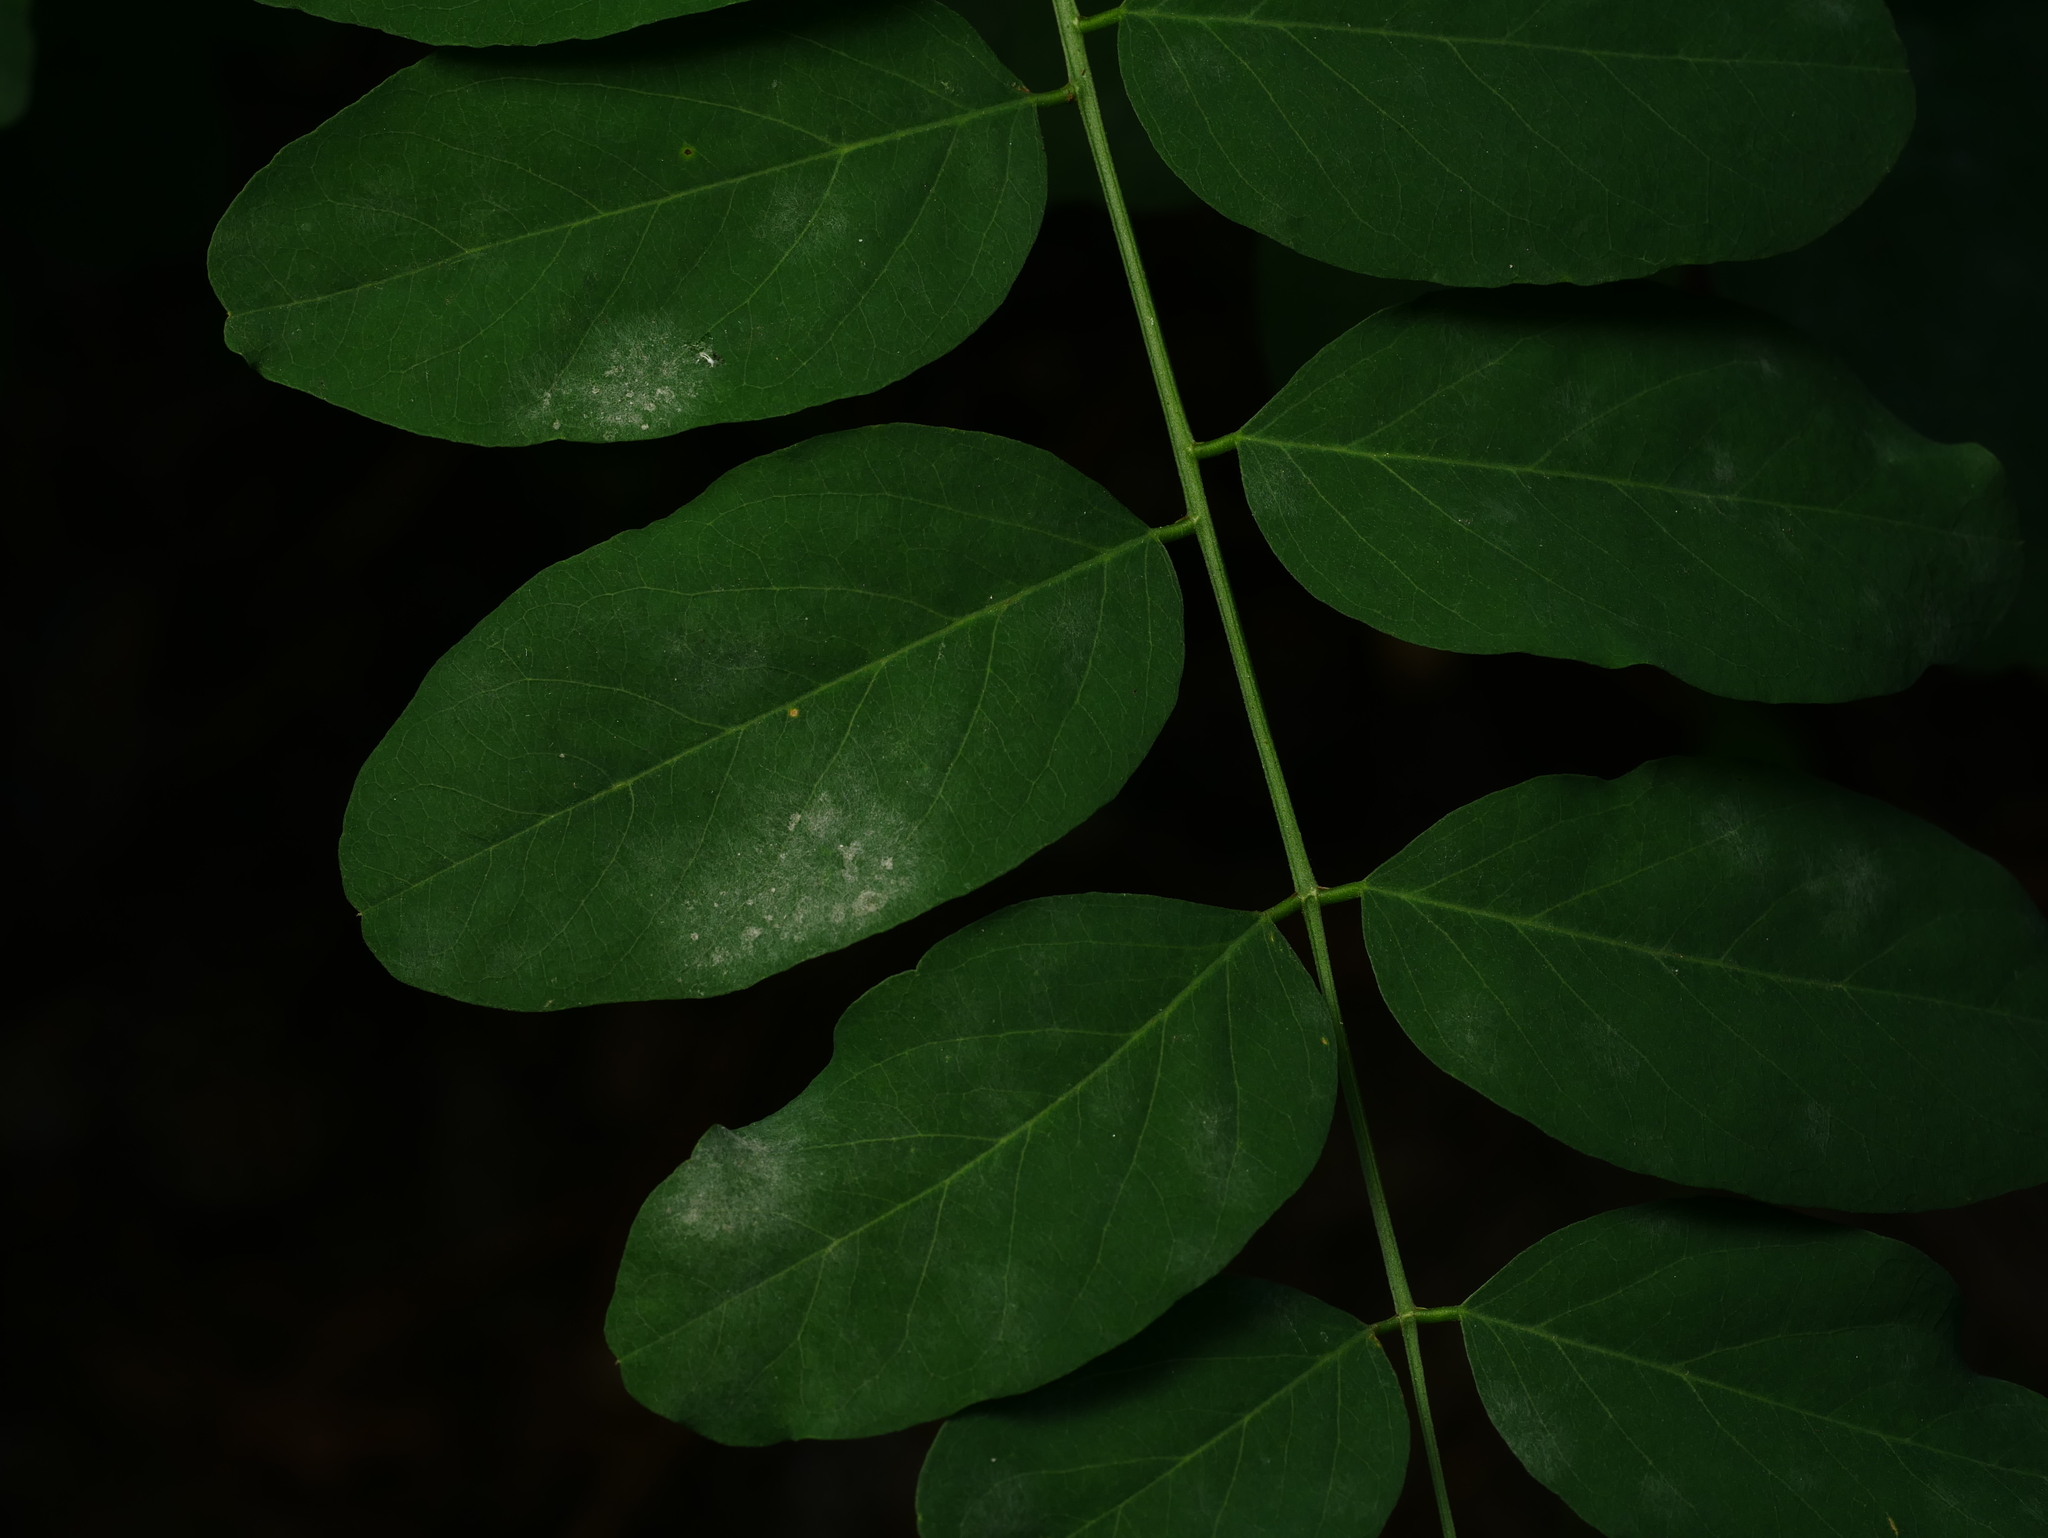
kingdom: Fungi
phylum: Ascomycota
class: Leotiomycetes
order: Helotiales
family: Erysiphaceae
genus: Erysiphe
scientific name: Erysiphe palczewskii
